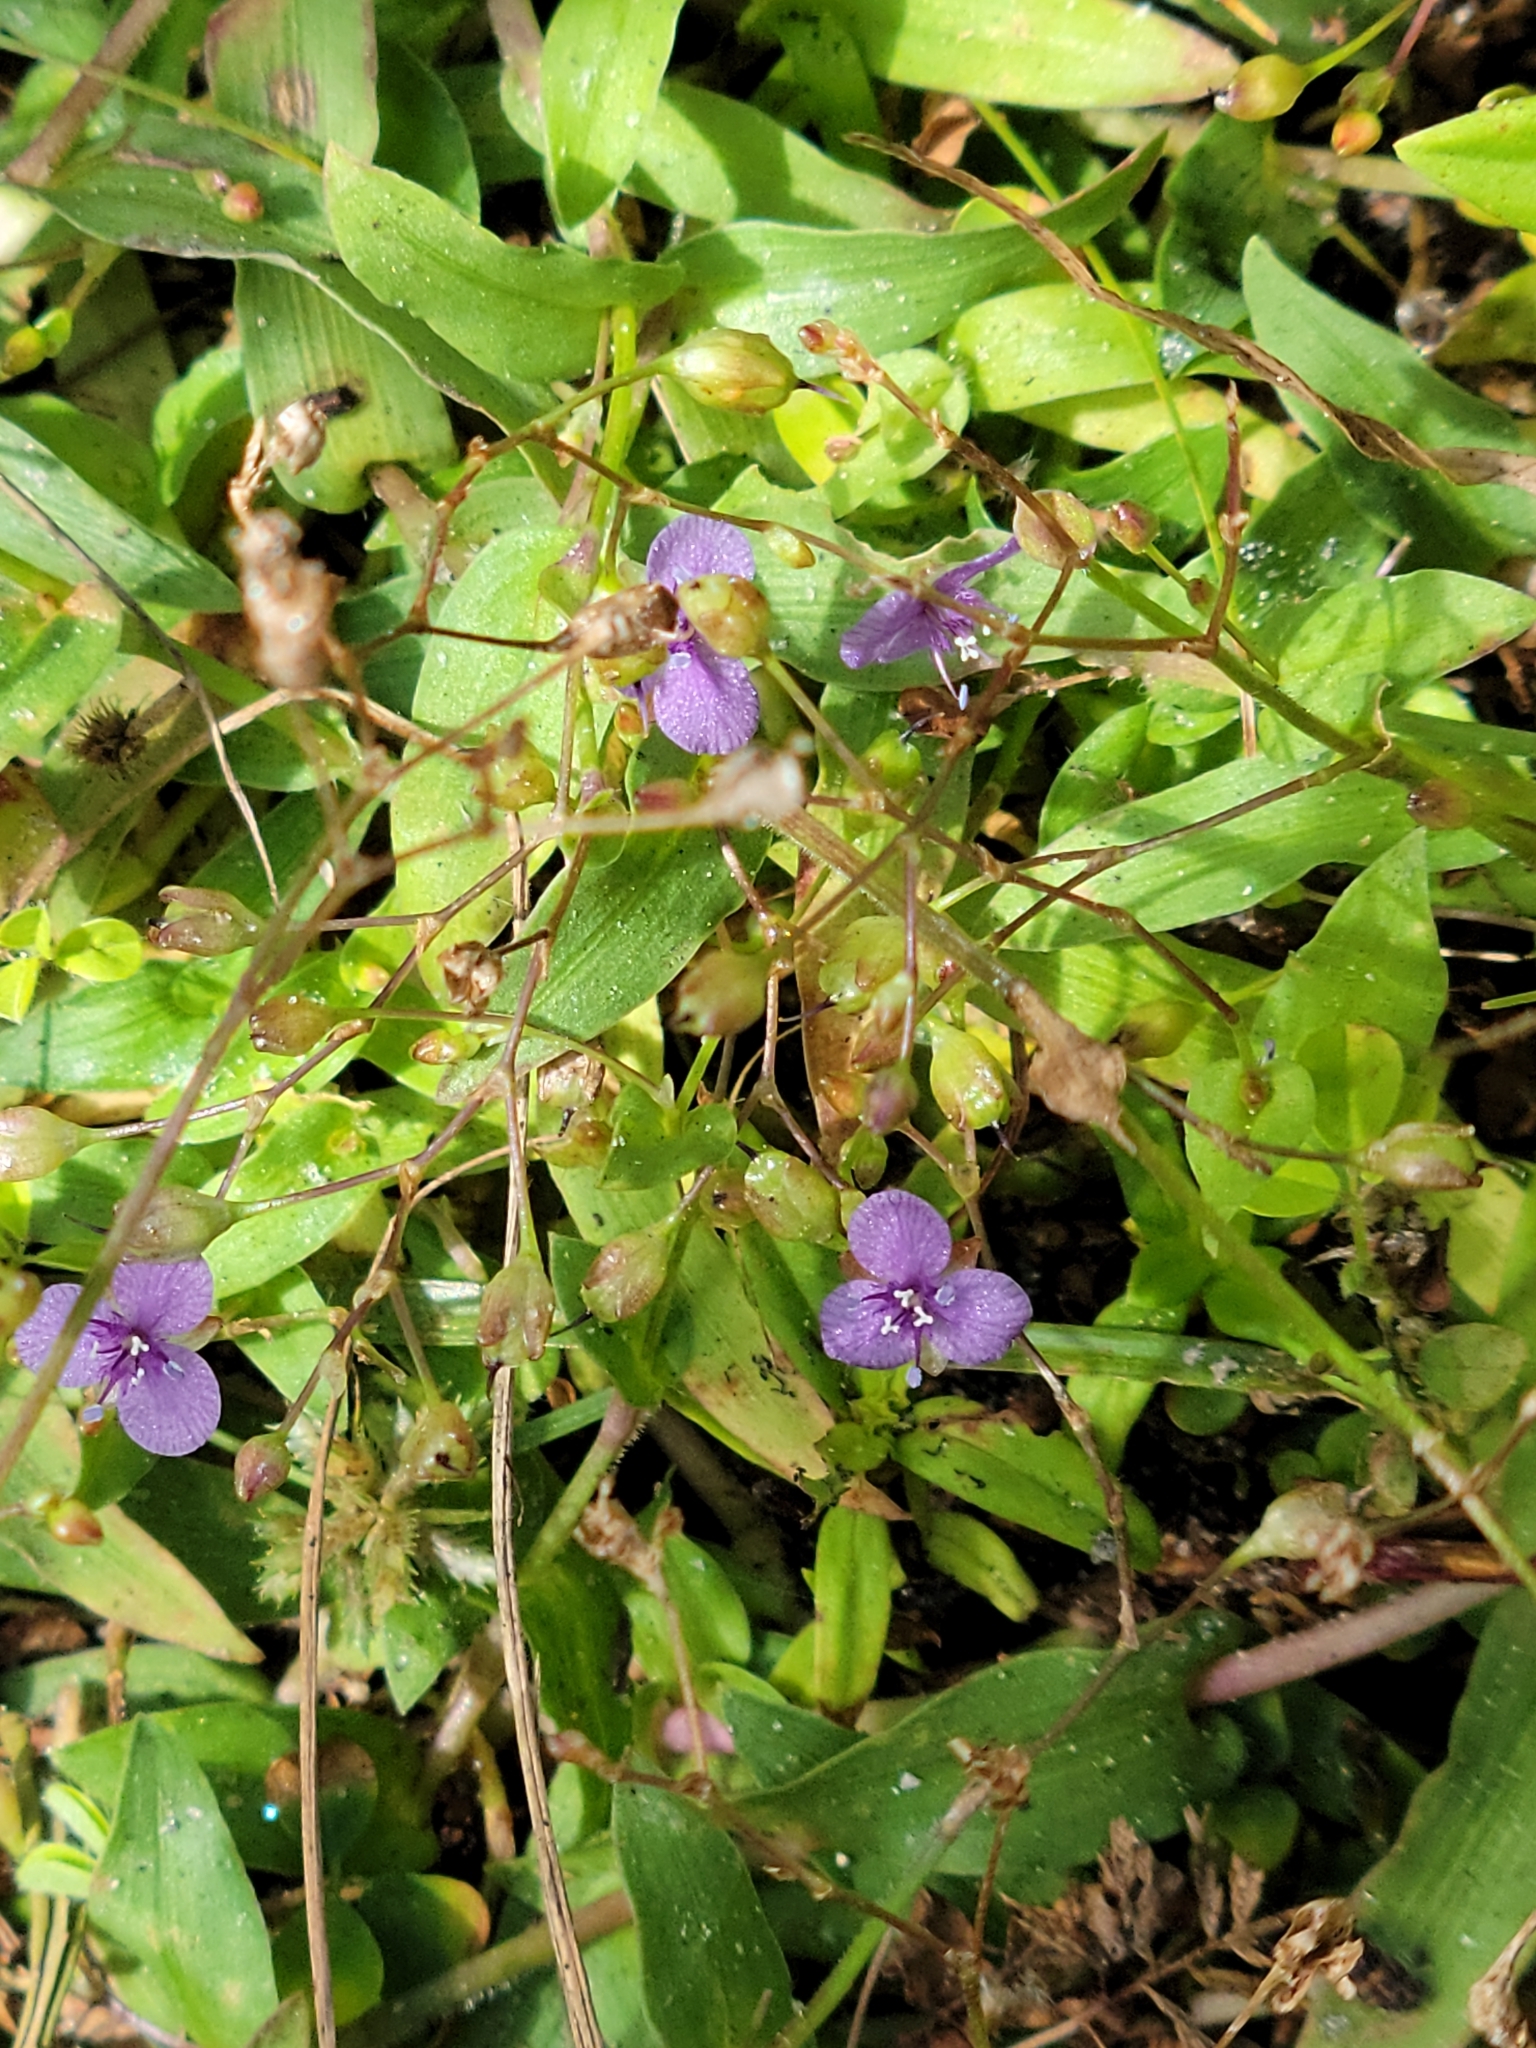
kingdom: Plantae
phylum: Tracheophyta
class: Liliopsida
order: Commelinales
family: Commelinaceae
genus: Murdannia
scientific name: Murdannia spirata
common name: Asiatic dewflower
